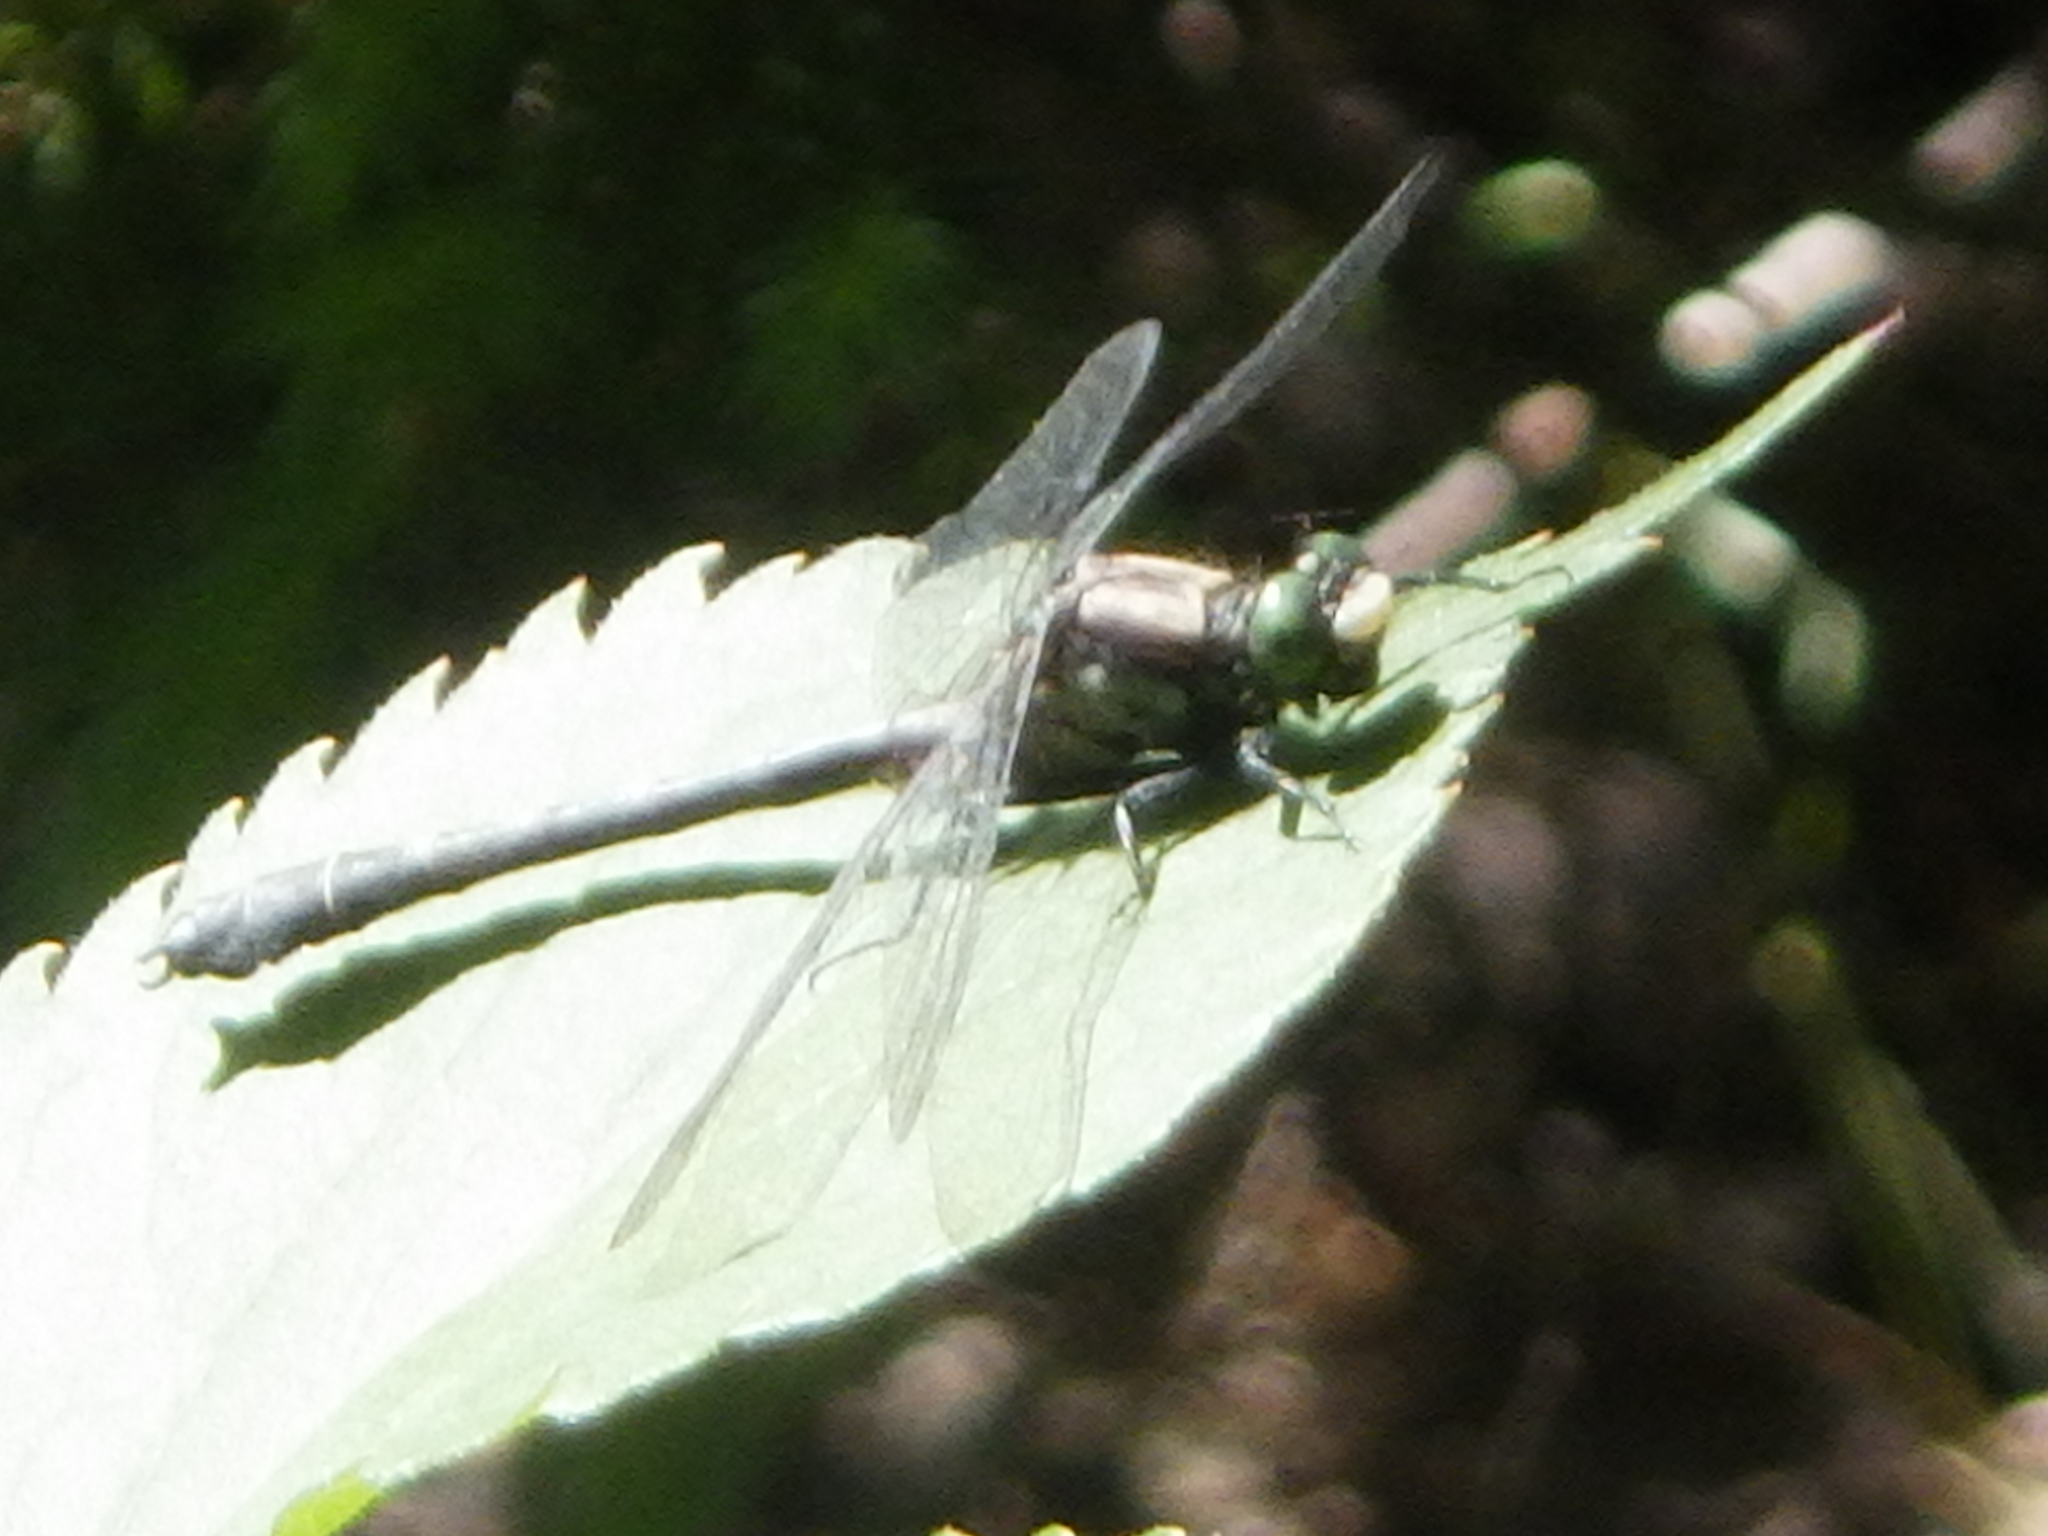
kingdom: Animalia
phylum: Arthropoda
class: Insecta
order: Odonata
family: Gomphidae
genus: Hylogomphus
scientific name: Hylogomphus adelphus
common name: Mustached clubtail
